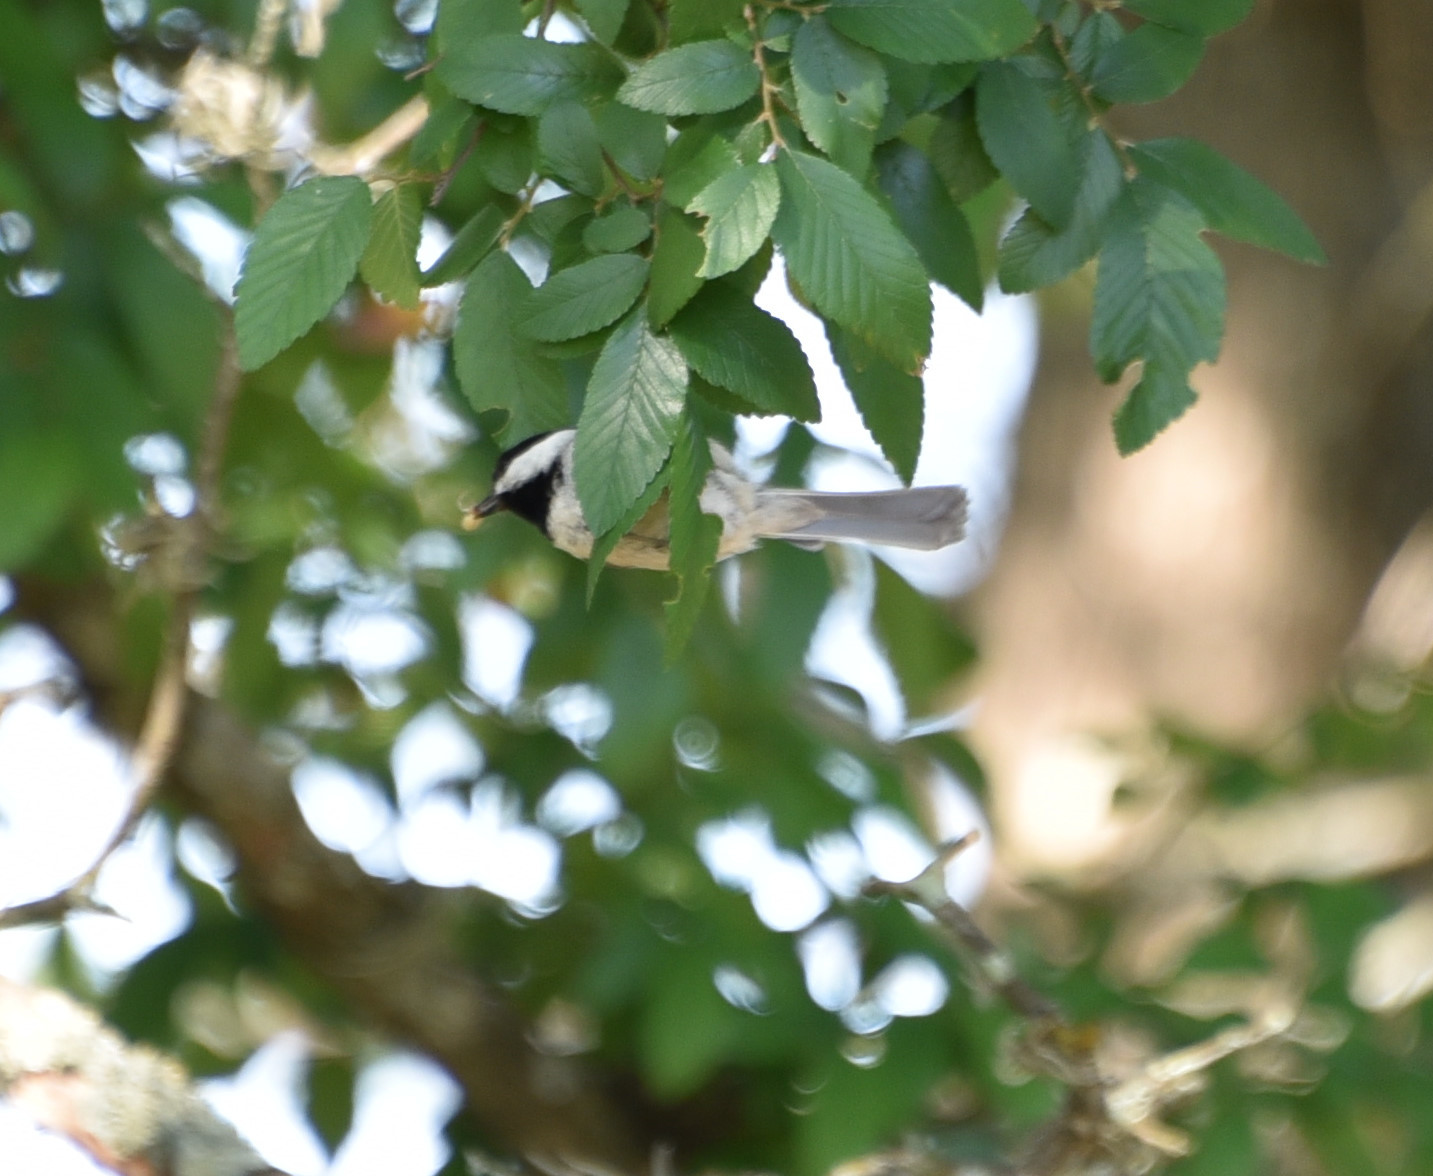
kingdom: Animalia
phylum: Chordata
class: Aves
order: Passeriformes
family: Paridae
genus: Poecile
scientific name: Poecile carolinensis
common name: Carolina chickadee
